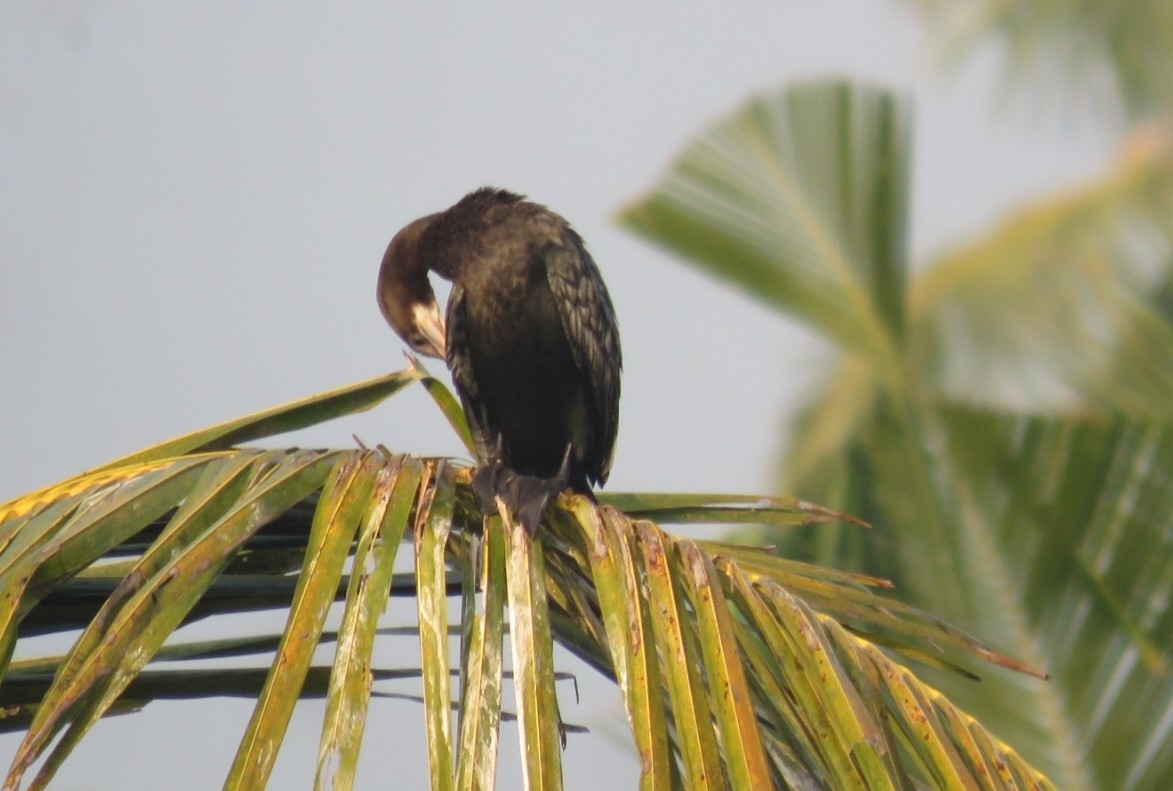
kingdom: Animalia
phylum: Chordata
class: Aves
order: Suliformes
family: Phalacrocoracidae
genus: Microcarbo
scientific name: Microcarbo niger
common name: Little cormorant
